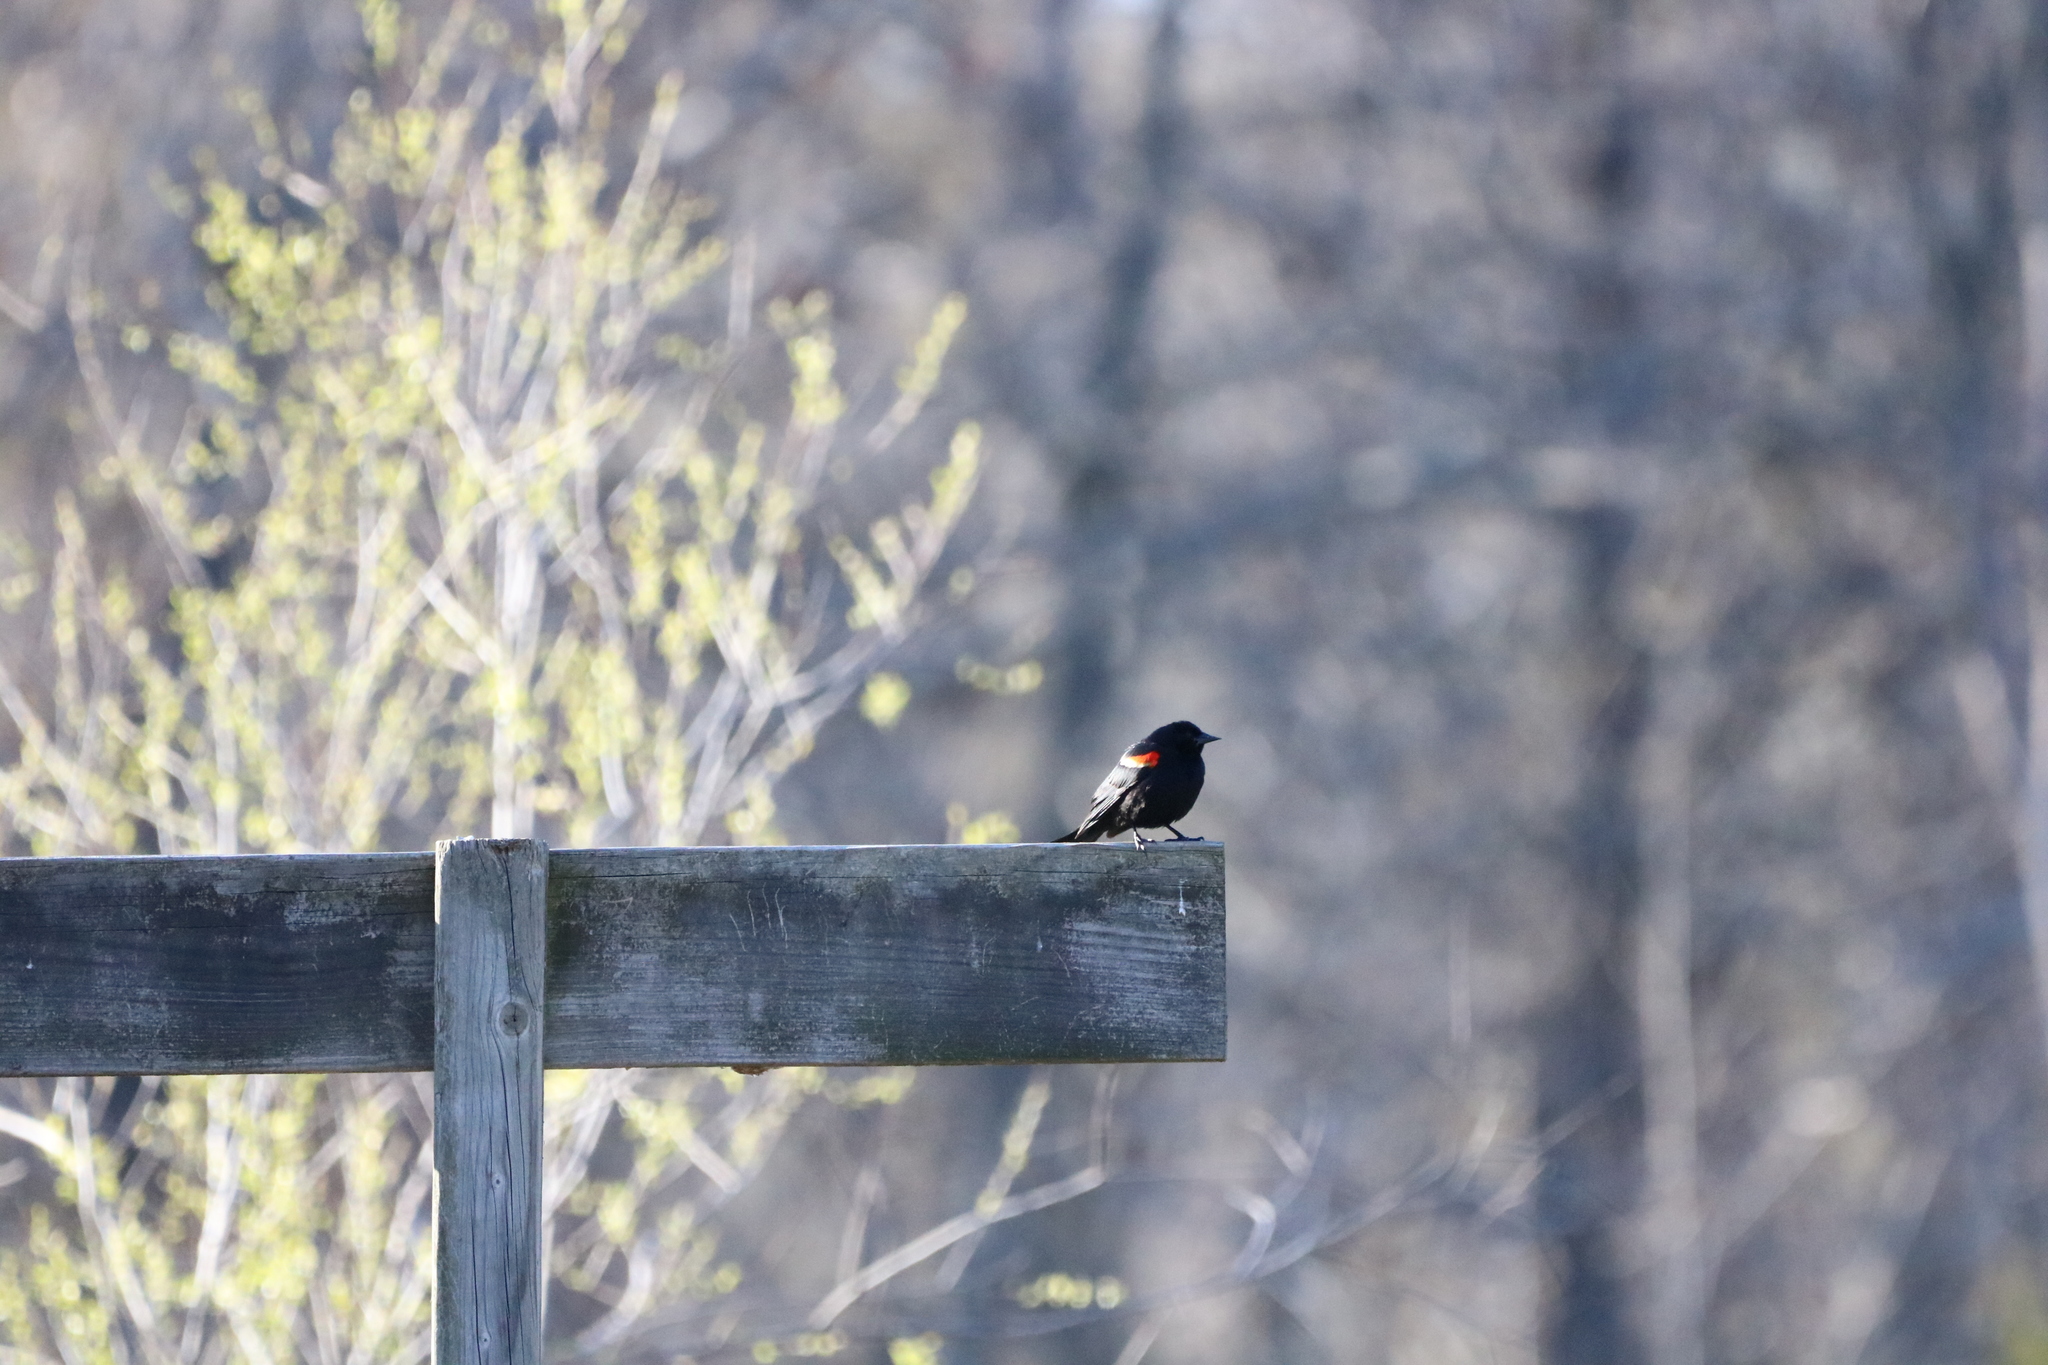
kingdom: Animalia
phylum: Chordata
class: Aves
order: Passeriformes
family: Icteridae
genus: Agelaius
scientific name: Agelaius phoeniceus
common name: Red-winged blackbird
